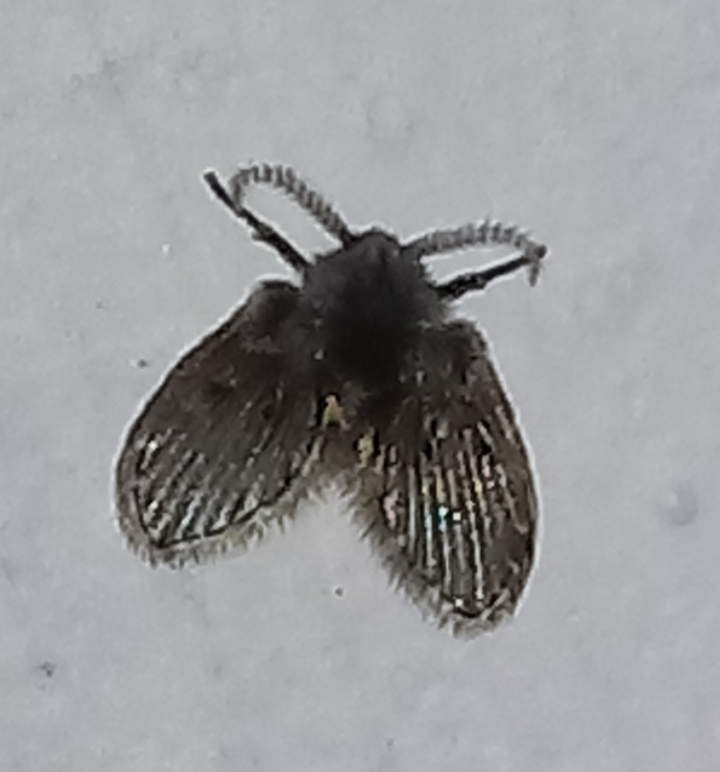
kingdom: Animalia
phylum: Arthropoda
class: Insecta
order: Diptera
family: Psychodidae
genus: Clogmia
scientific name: Clogmia albipunctatus
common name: White-spotted moth fly
